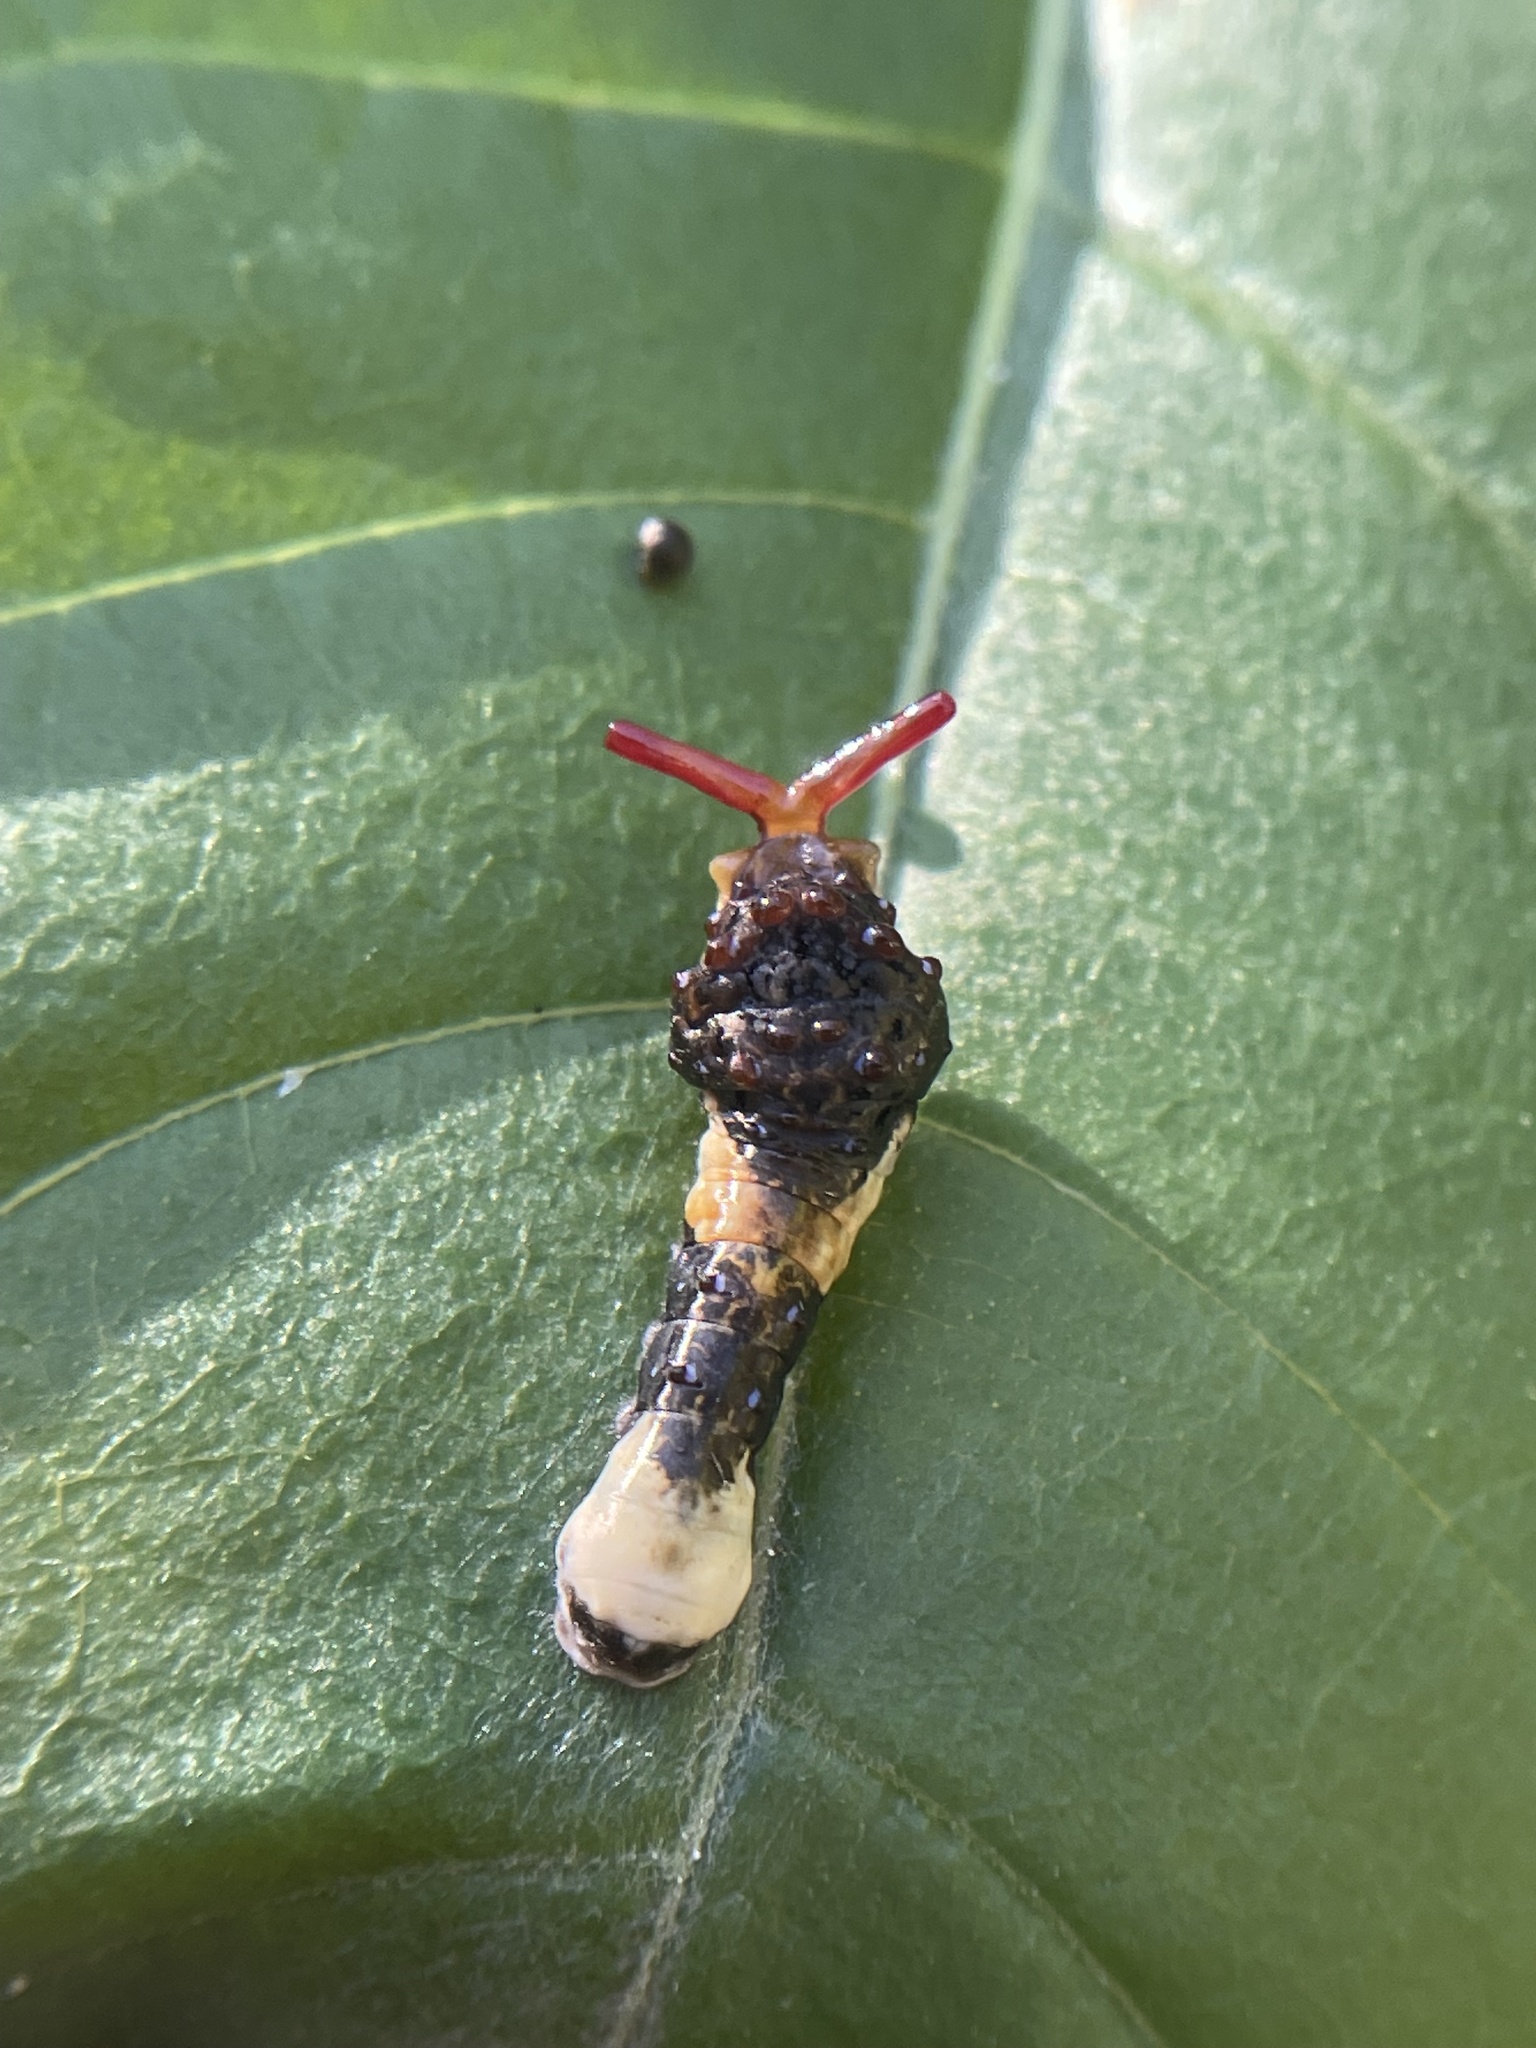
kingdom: Animalia
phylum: Arthropoda
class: Insecta
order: Lepidoptera
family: Papilionidae
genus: Papilio
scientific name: Papilio cresphontes
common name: Giant swallowtail
